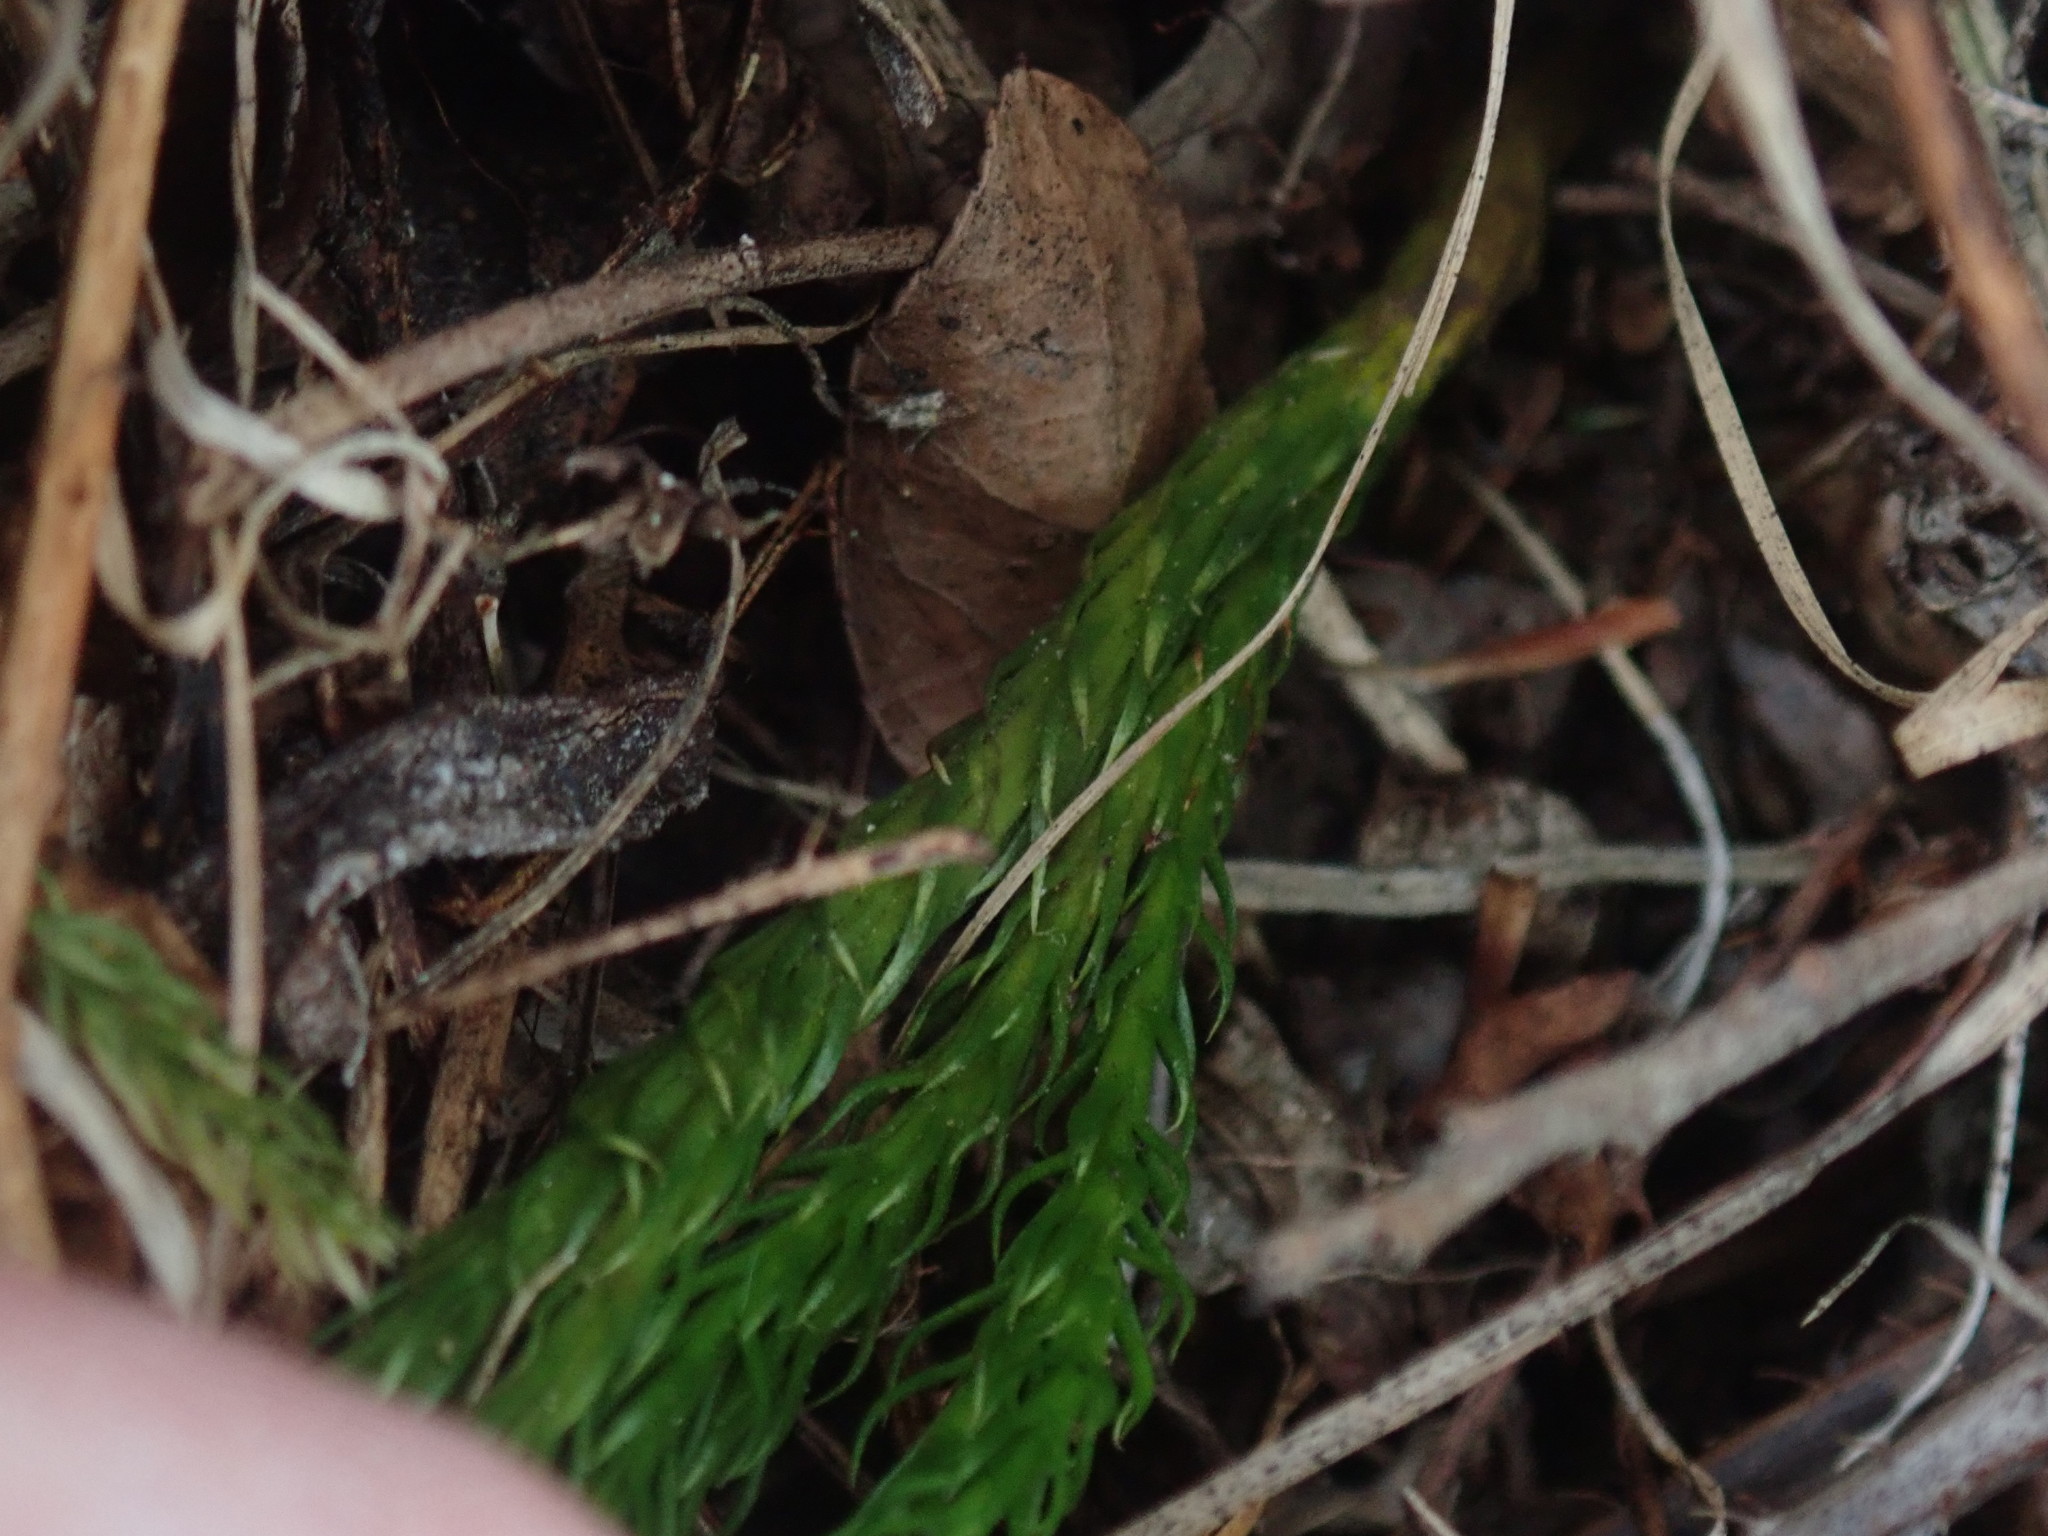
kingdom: Plantae
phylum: Tracheophyta
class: Lycopodiopsida
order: Lycopodiales
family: Lycopodiaceae
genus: Dendrolycopodium
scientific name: Dendrolycopodium hickeyi
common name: Hickey's clubmoss
